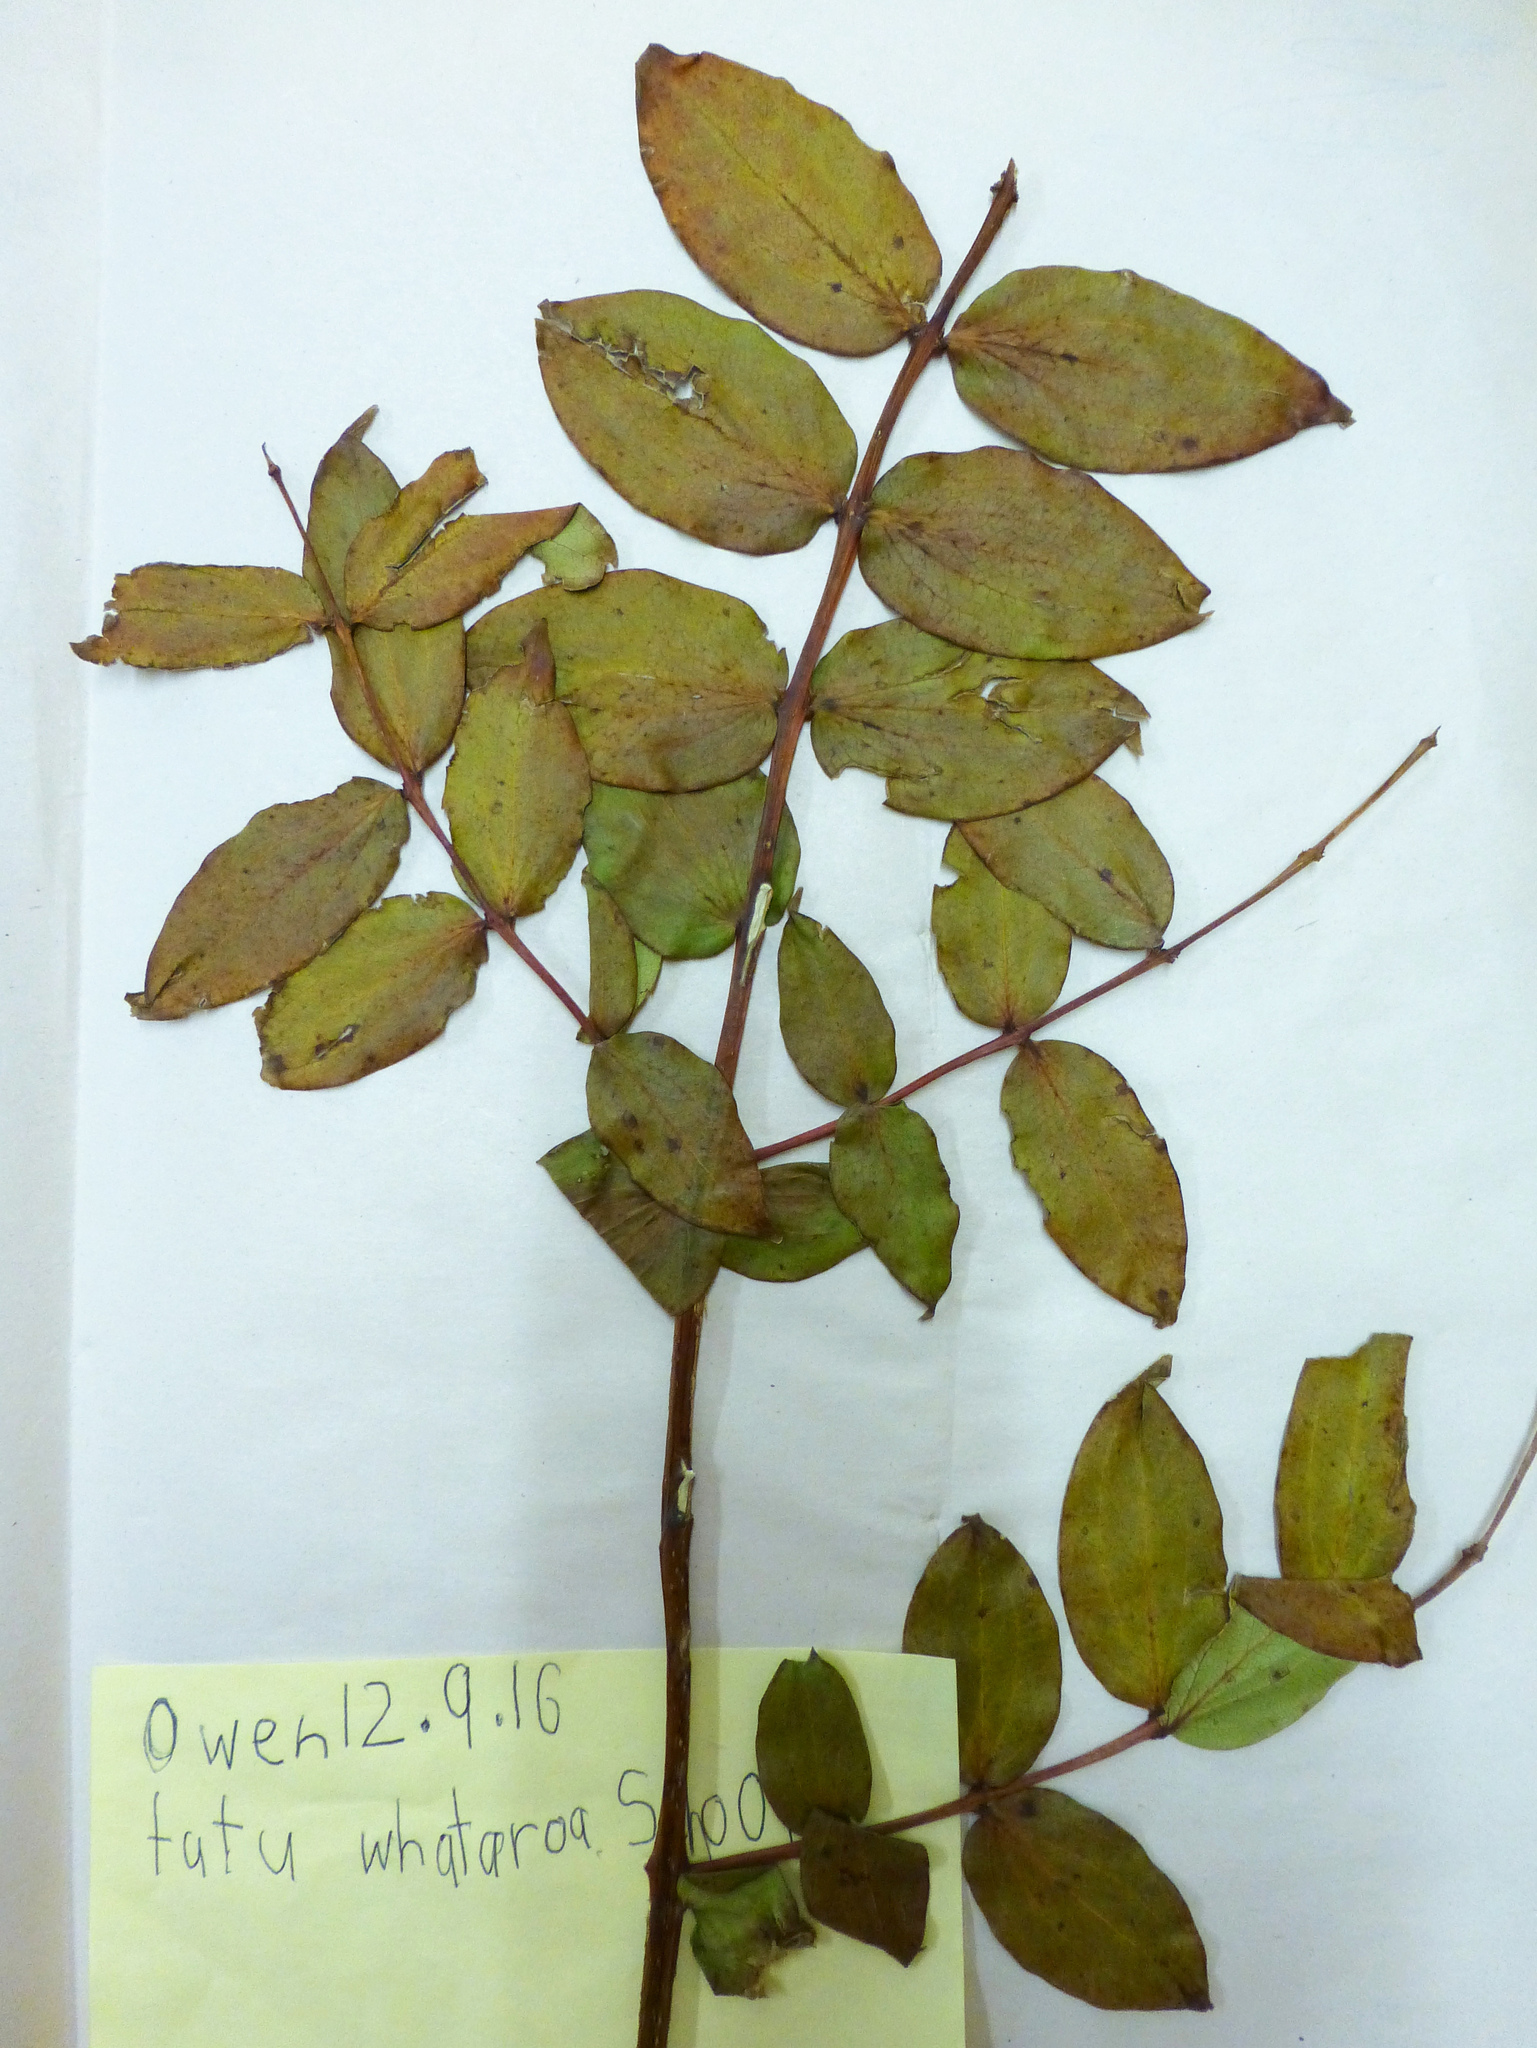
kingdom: Plantae
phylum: Tracheophyta
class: Magnoliopsida
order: Cucurbitales
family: Coriariaceae
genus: Coriaria
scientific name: Coriaria arborea
